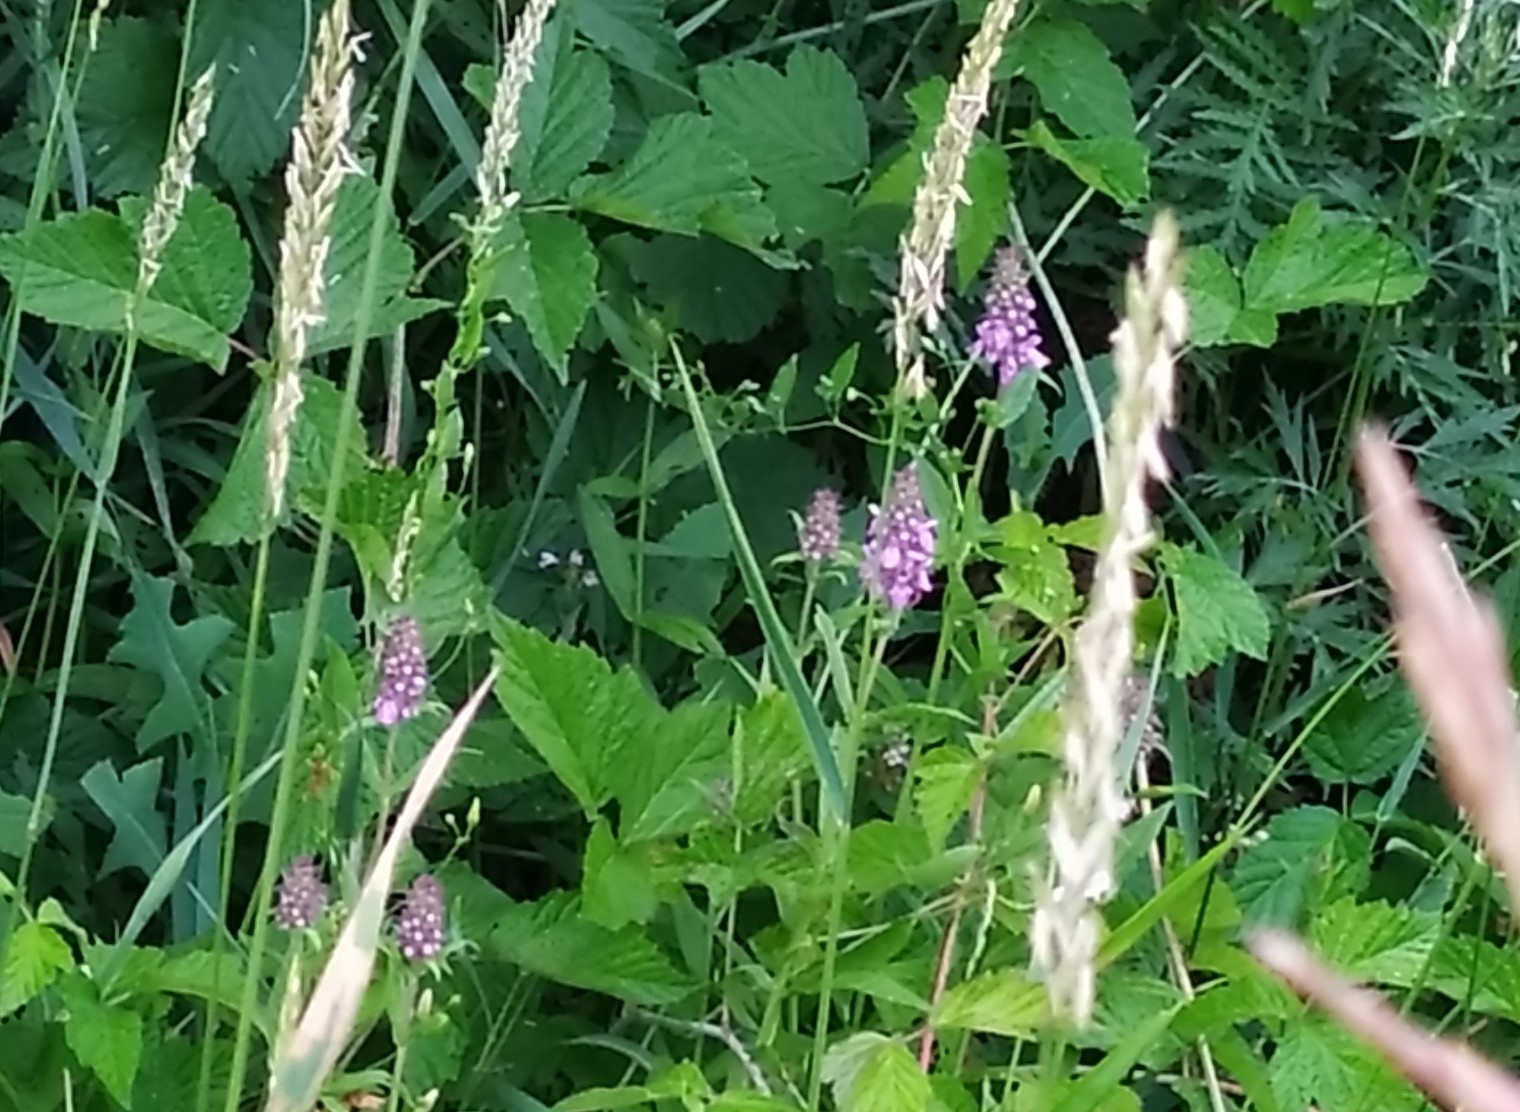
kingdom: Plantae
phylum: Tracheophyta
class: Magnoliopsida
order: Lamiales
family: Lamiaceae
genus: Stachys
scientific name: Stachys palustris
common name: Marsh woundwort
